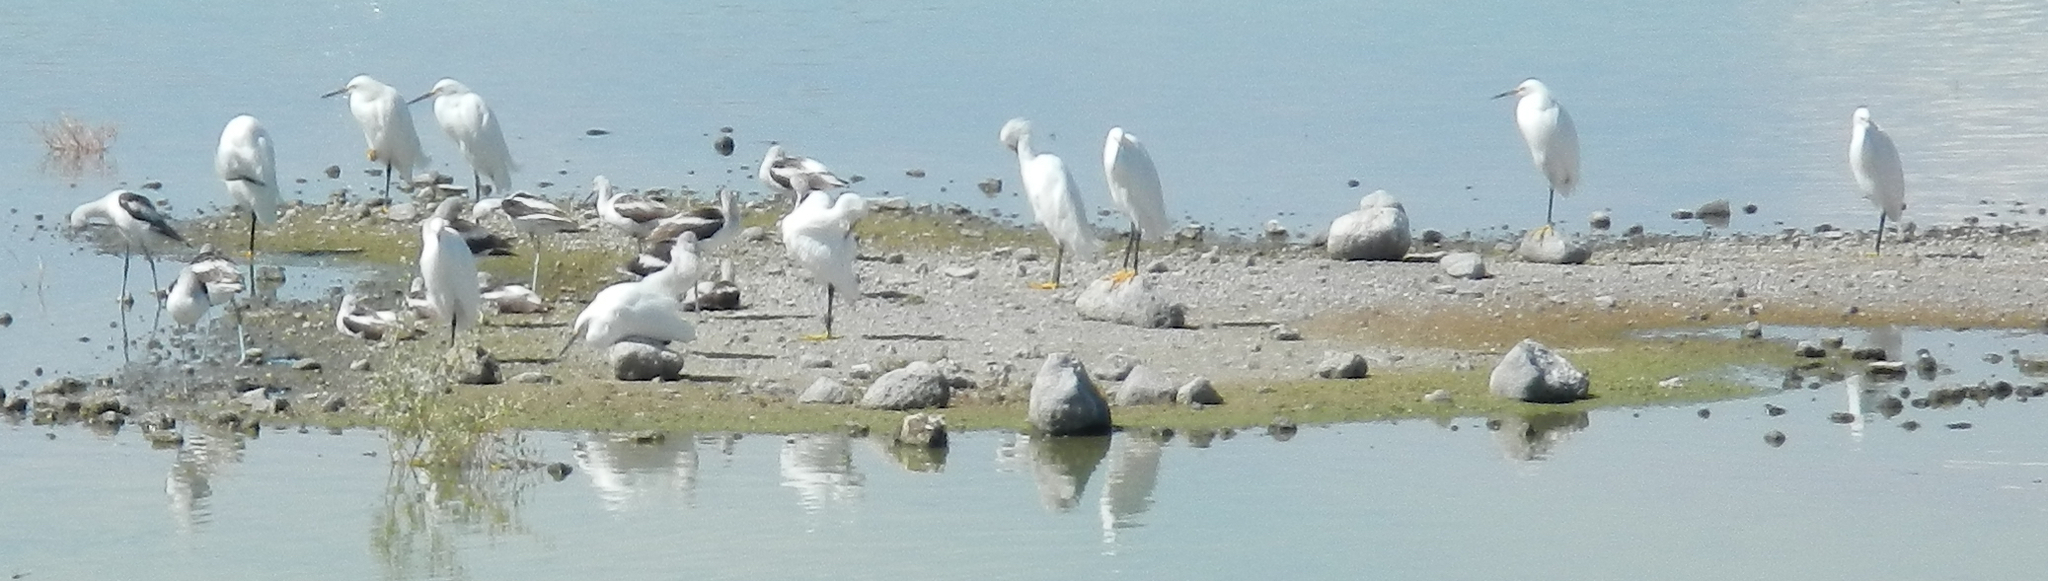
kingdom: Animalia
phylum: Chordata
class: Aves
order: Pelecaniformes
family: Ardeidae
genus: Egretta
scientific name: Egretta thula
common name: Snowy egret
